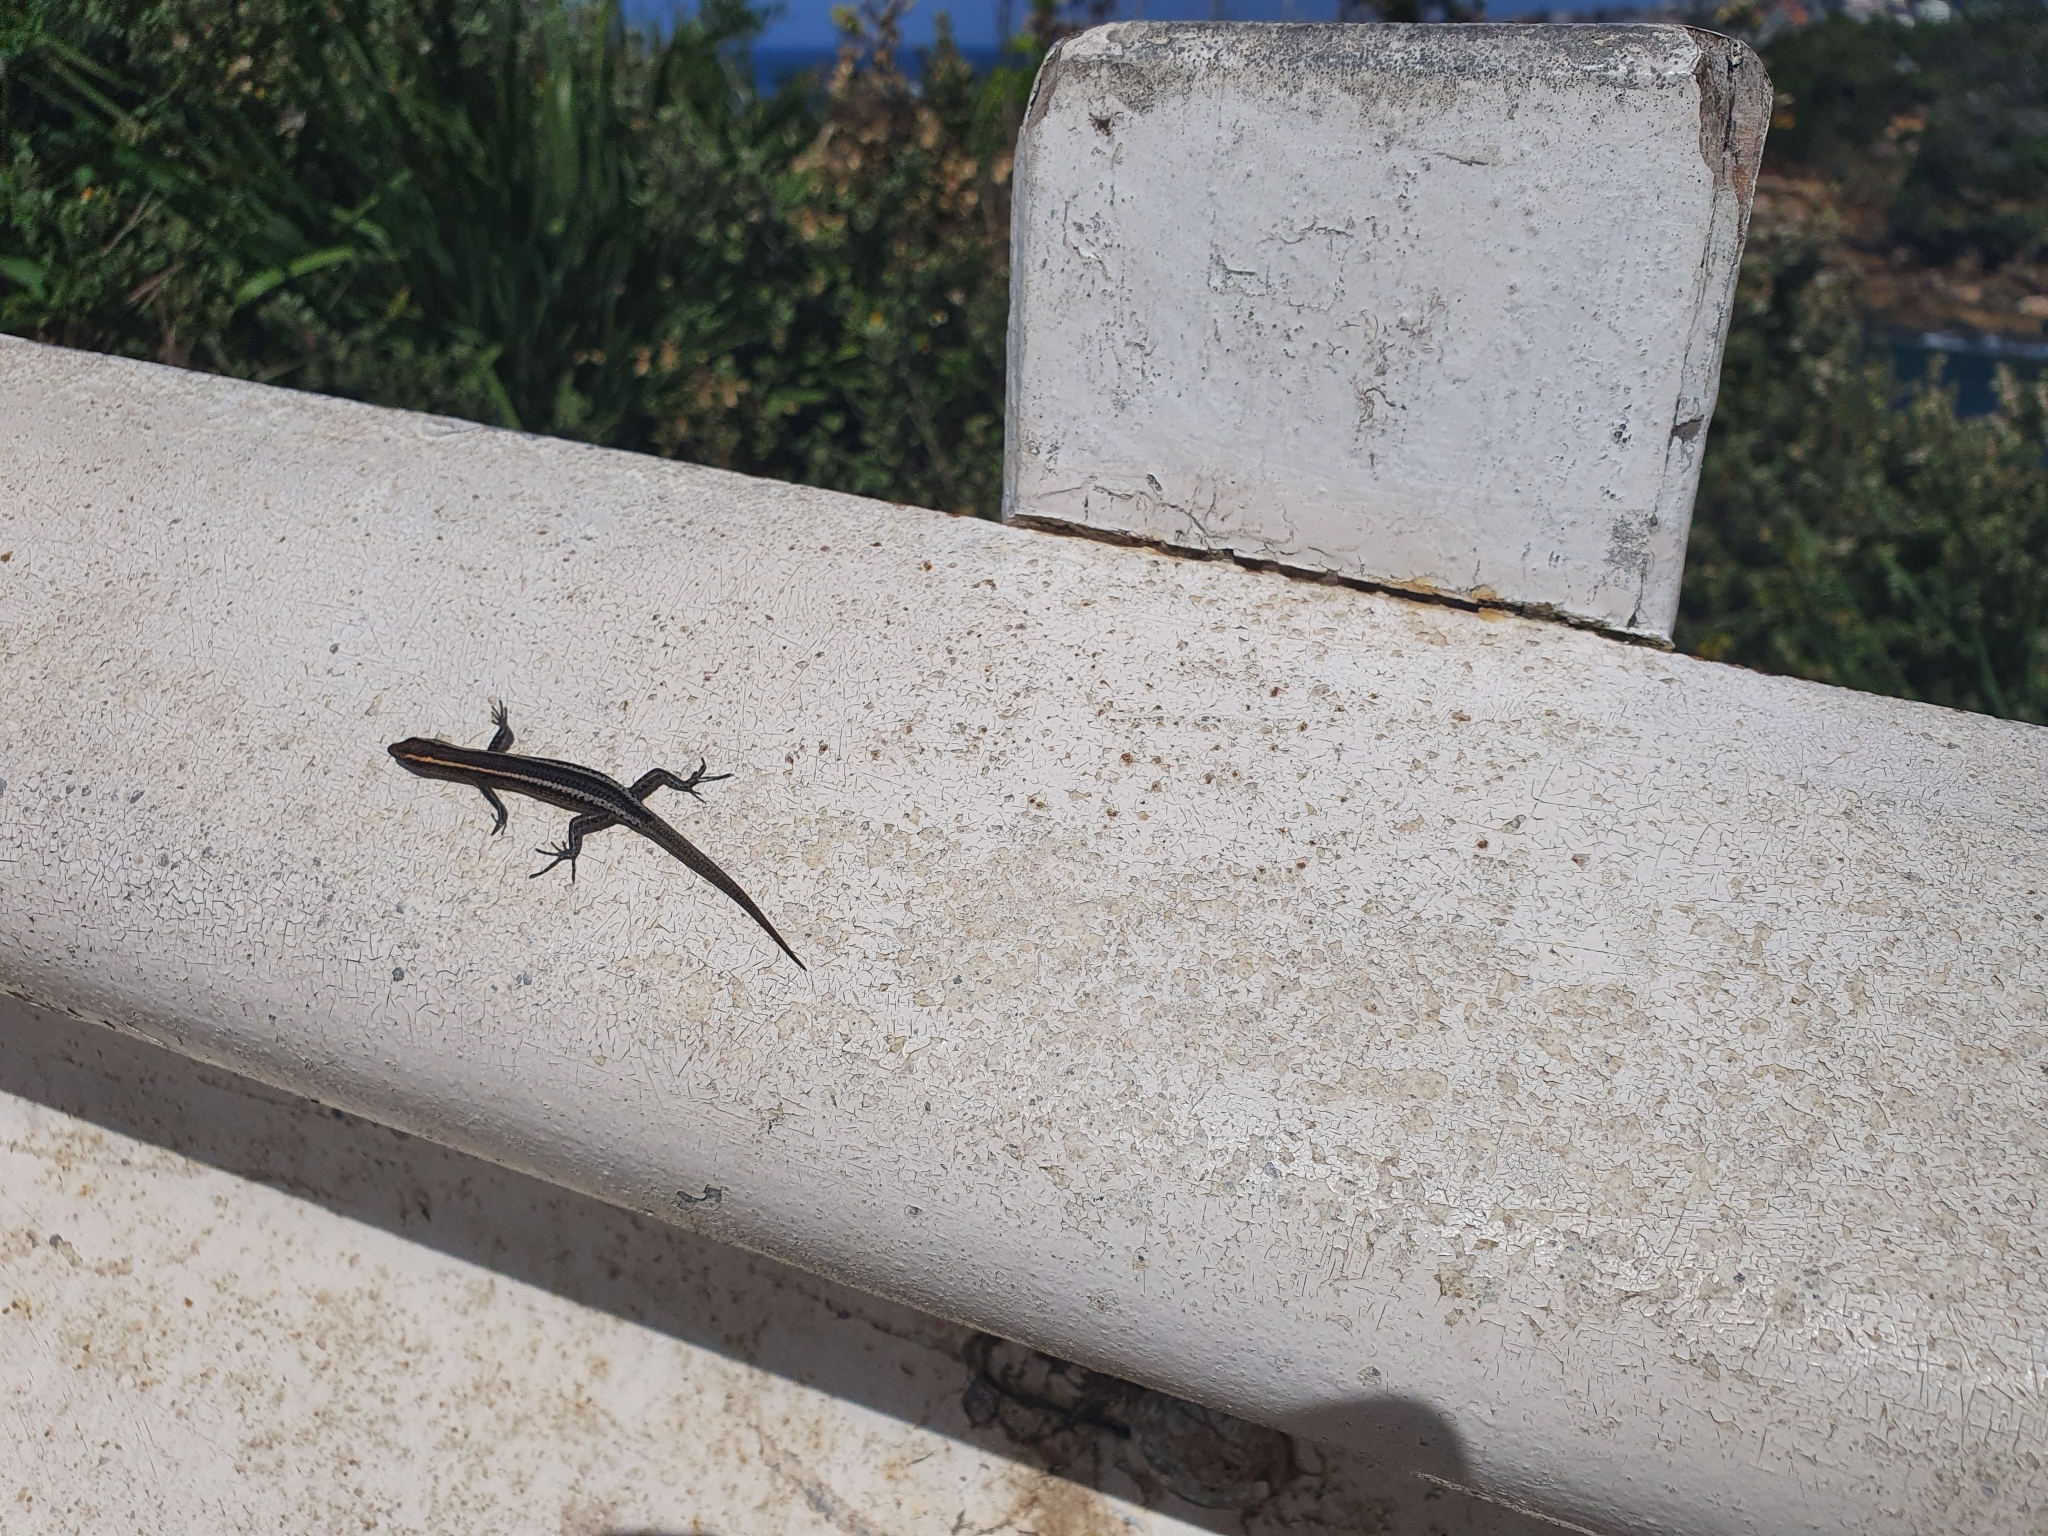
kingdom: Animalia
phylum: Chordata
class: Squamata
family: Scincidae
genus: Cryptoblepharus
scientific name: Cryptoblepharus pulcher
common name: Elegant snake-eyed skink
